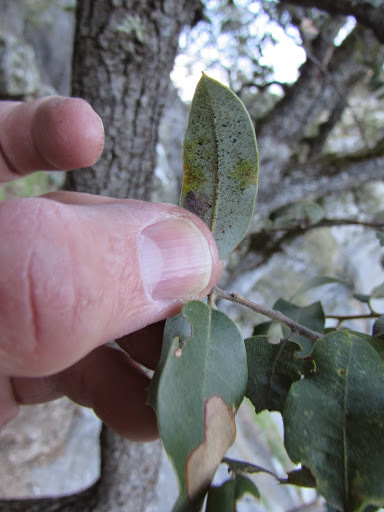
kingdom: Plantae
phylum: Tracheophyta
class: Magnoliopsida
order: Fagales
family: Fagaceae
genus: Quercus
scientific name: Quercus chrysolepis
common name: Canyon live oak
